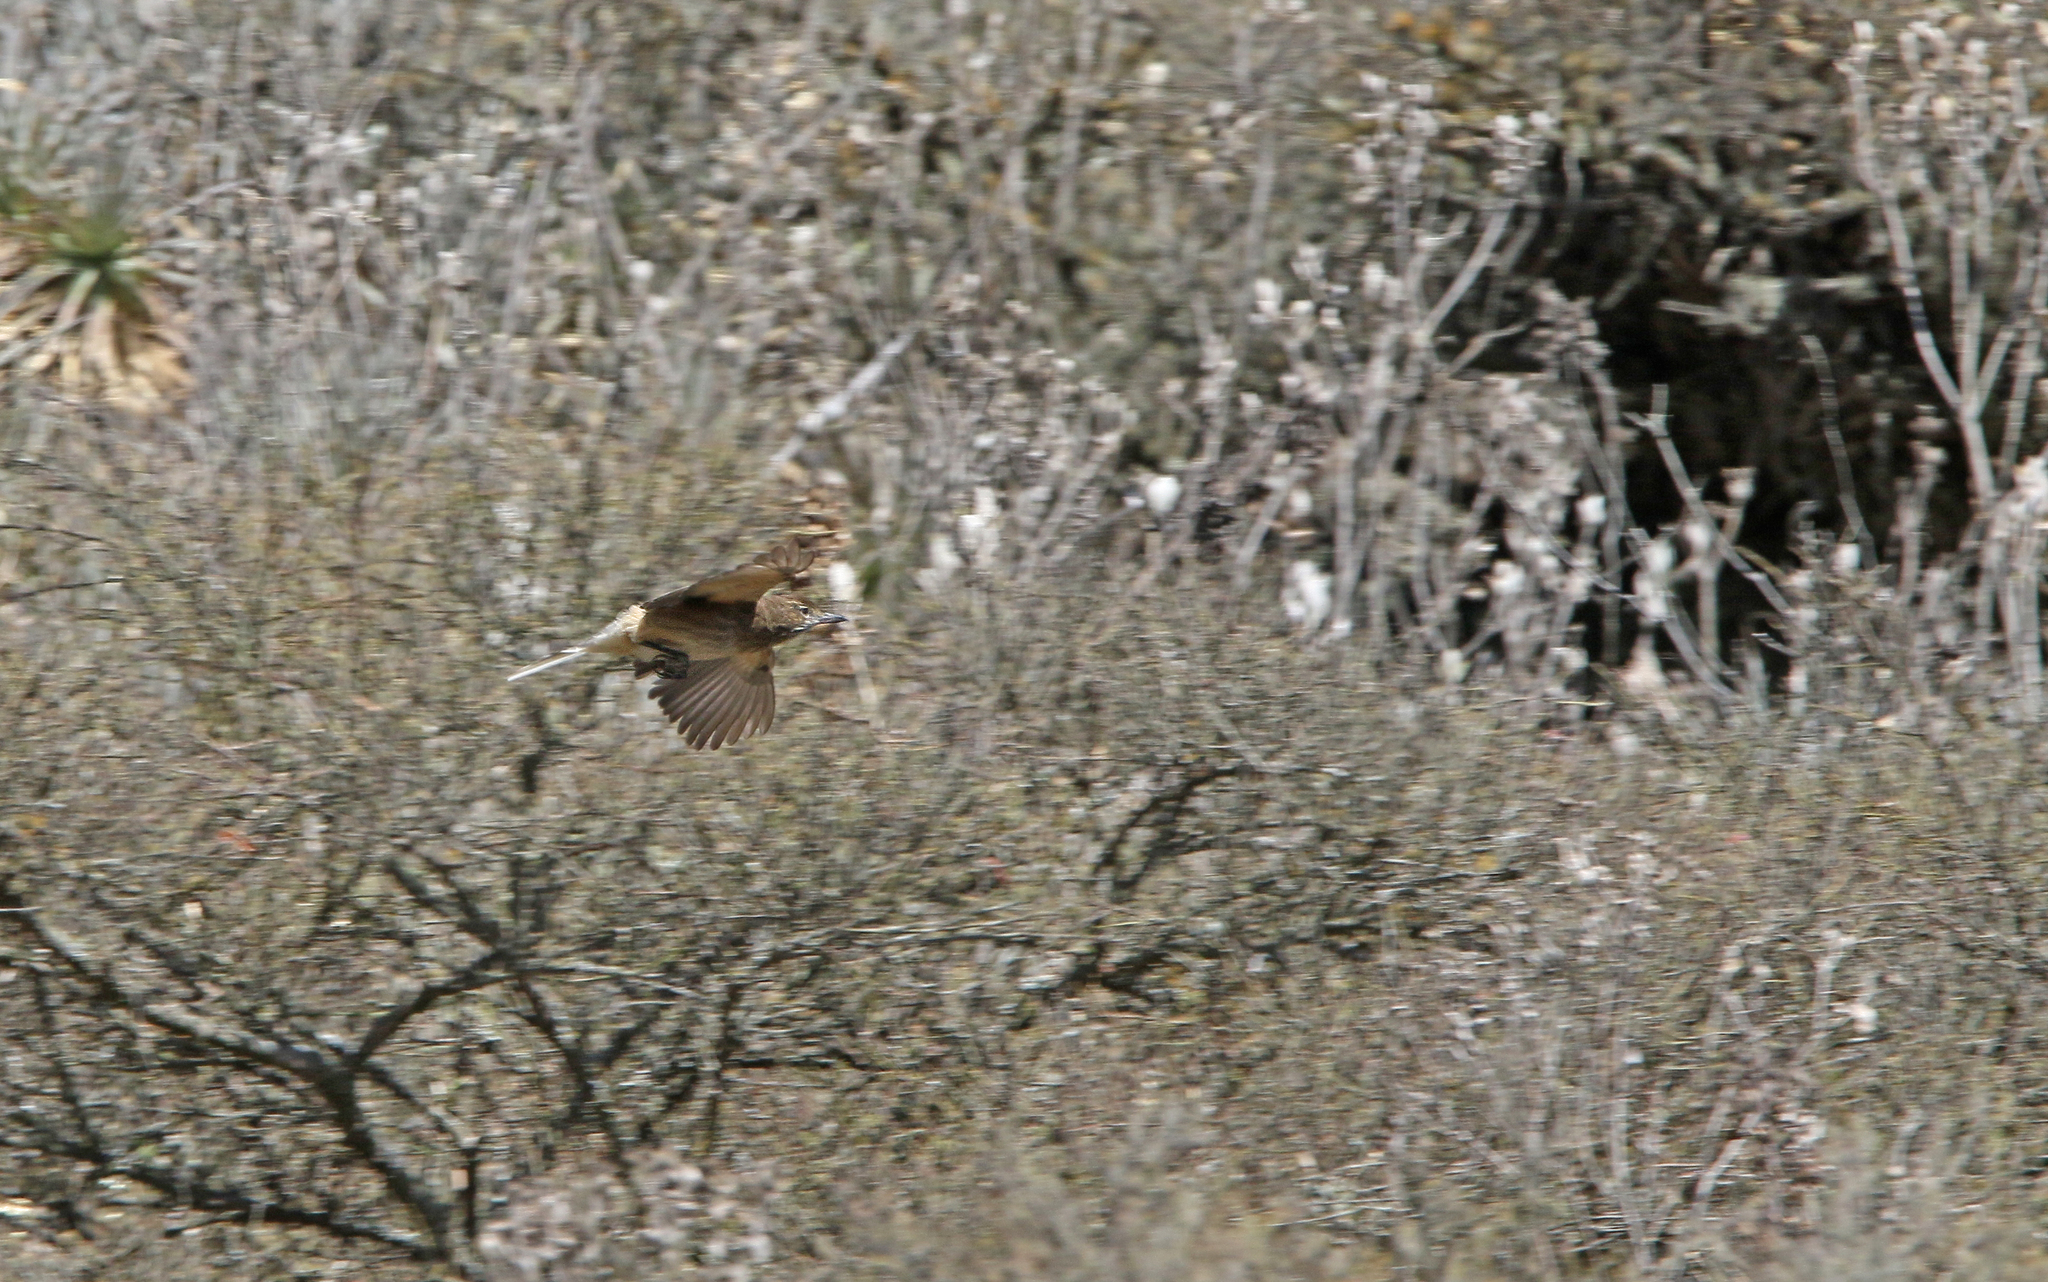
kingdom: Animalia
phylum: Chordata
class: Aves
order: Passeriformes
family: Tyrannidae
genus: Agriornis
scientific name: Agriornis andicola
